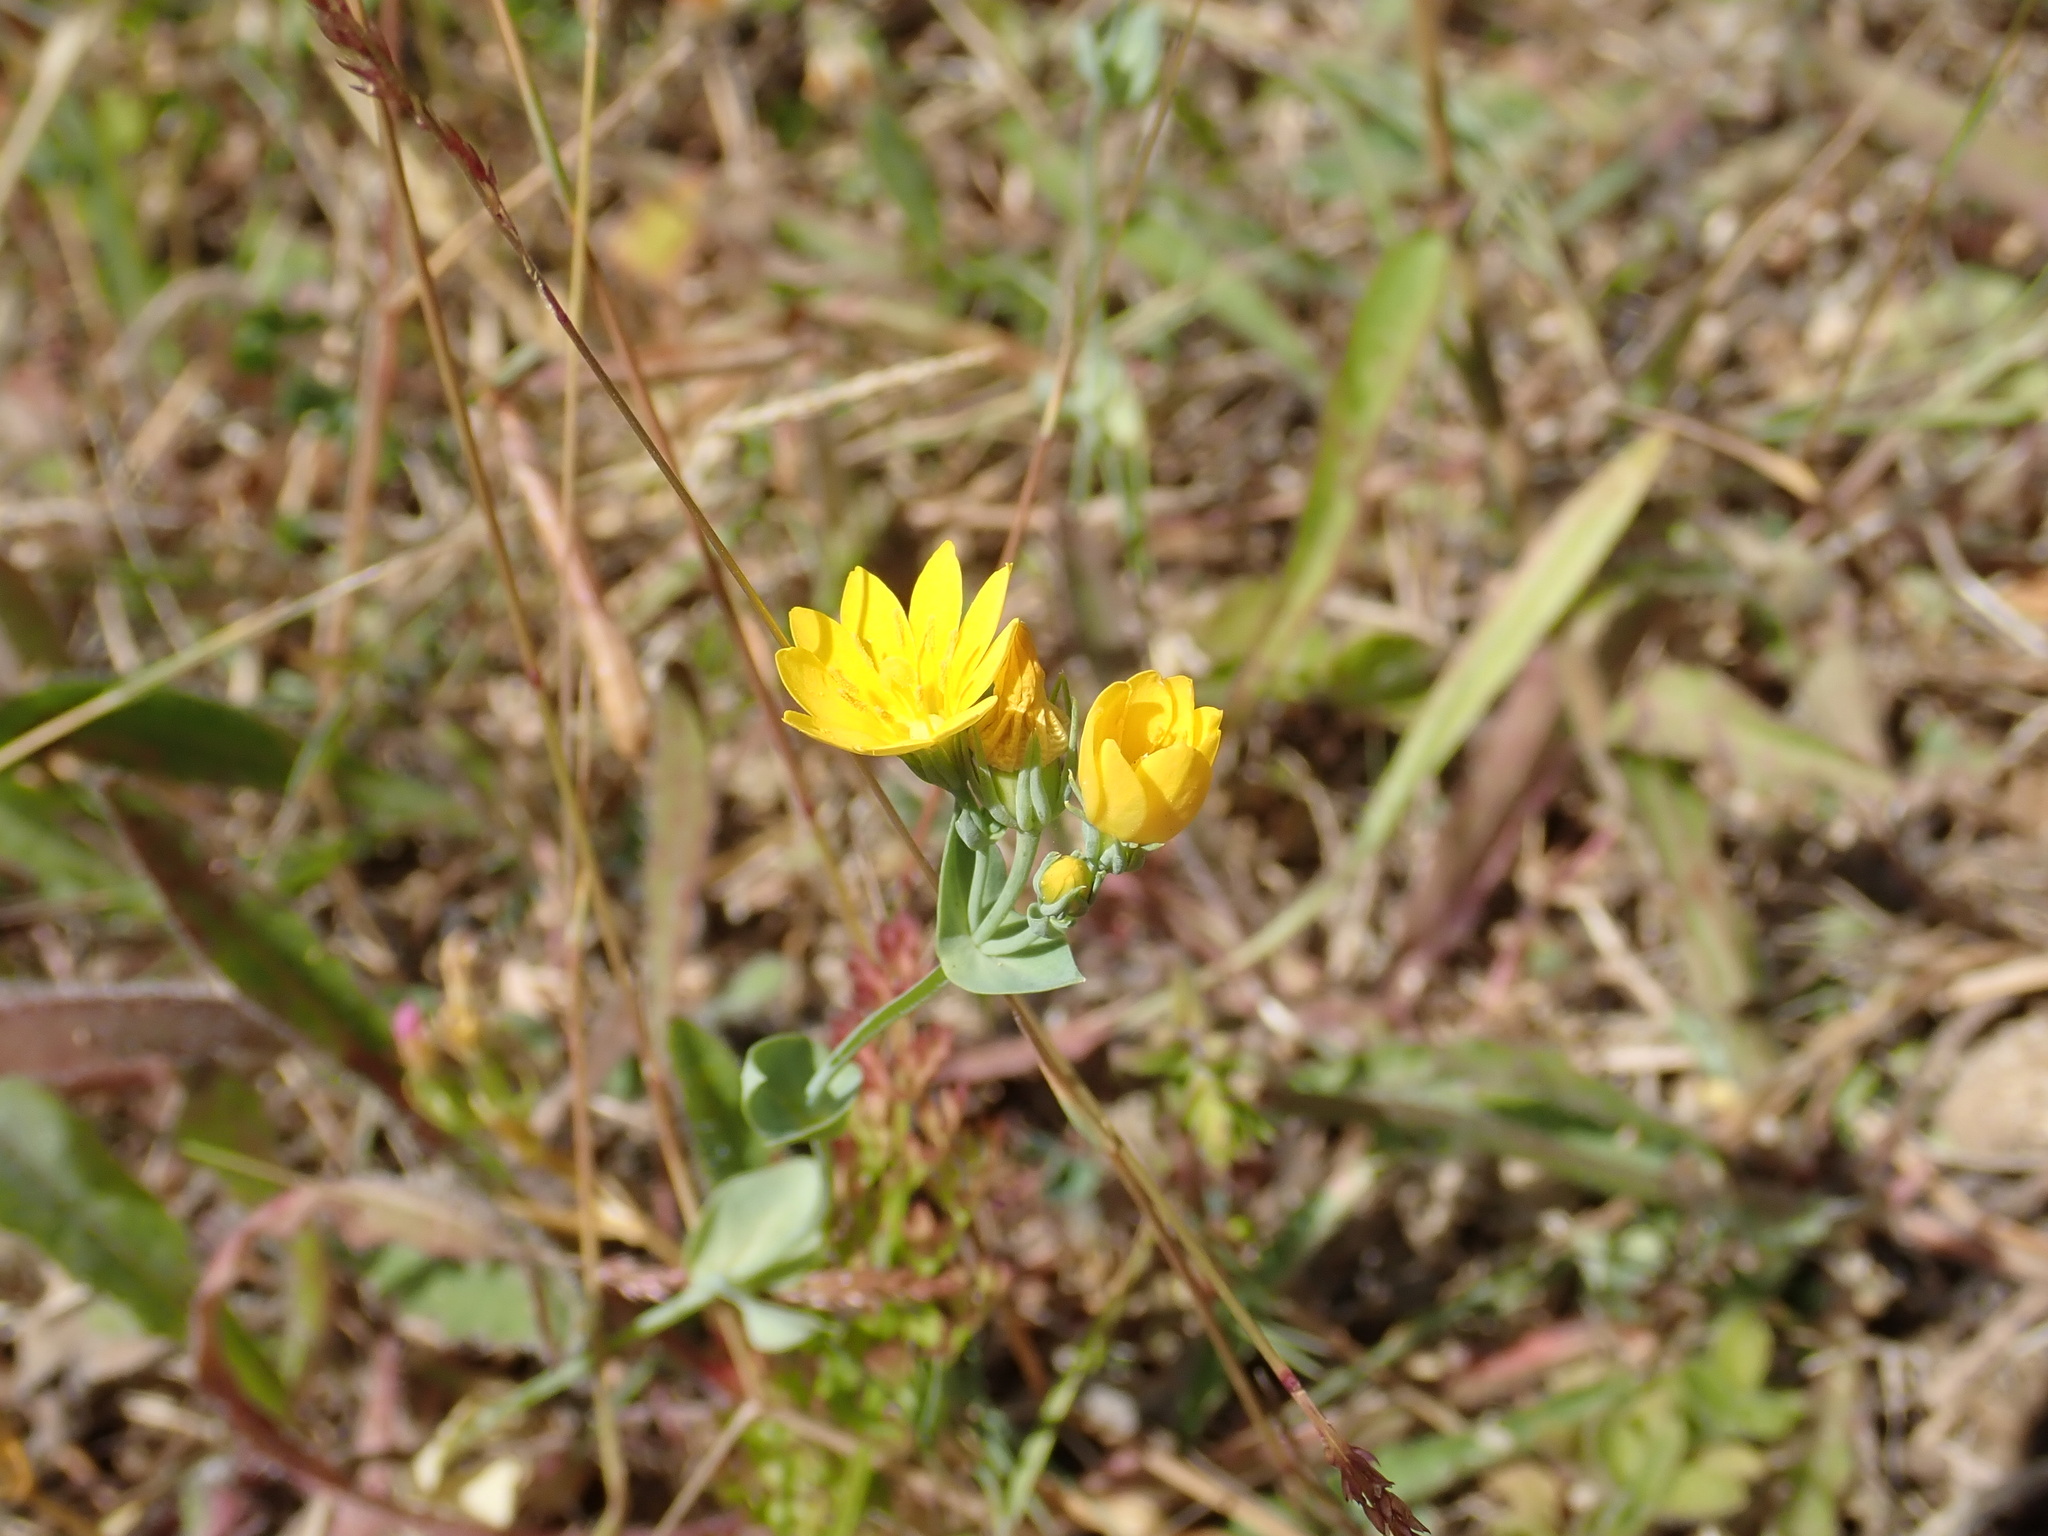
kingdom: Plantae
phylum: Tracheophyta
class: Magnoliopsida
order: Gentianales
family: Gentianaceae
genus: Blackstonia
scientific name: Blackstonia perfoliata
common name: Yellow-wort
